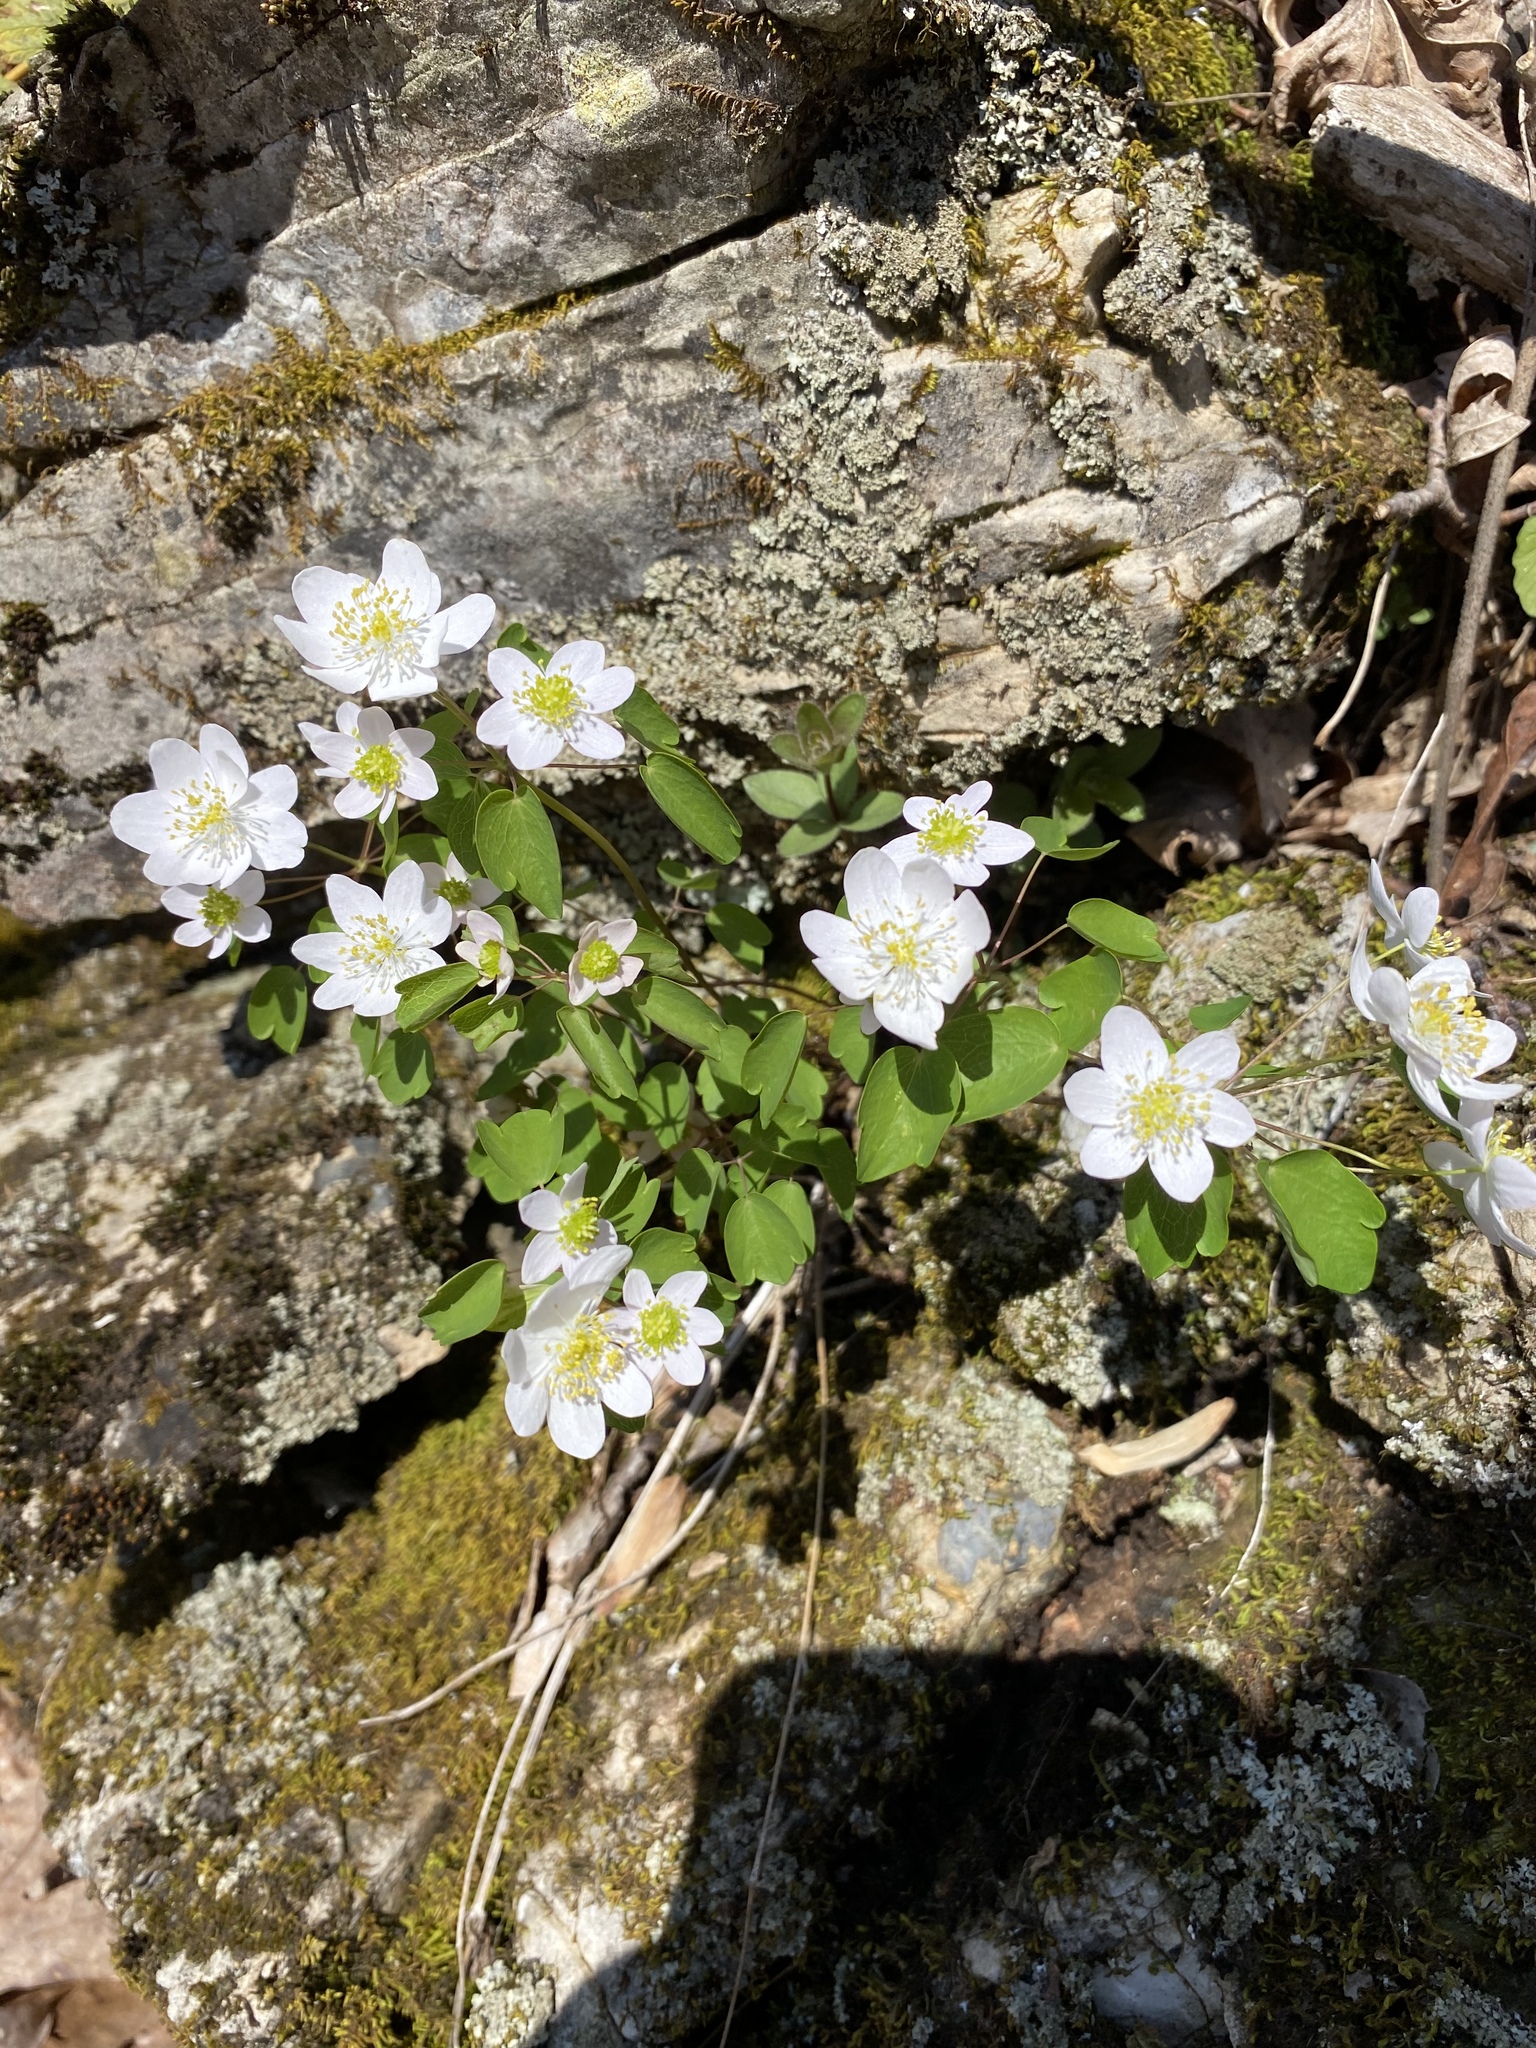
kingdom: Plantae
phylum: Tracheophyta
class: Magnoliopsida
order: Ranunculales
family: Ranunculaceae
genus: Thalictrum
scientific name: Thalictrum thalictroides
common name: Rue-anemone
